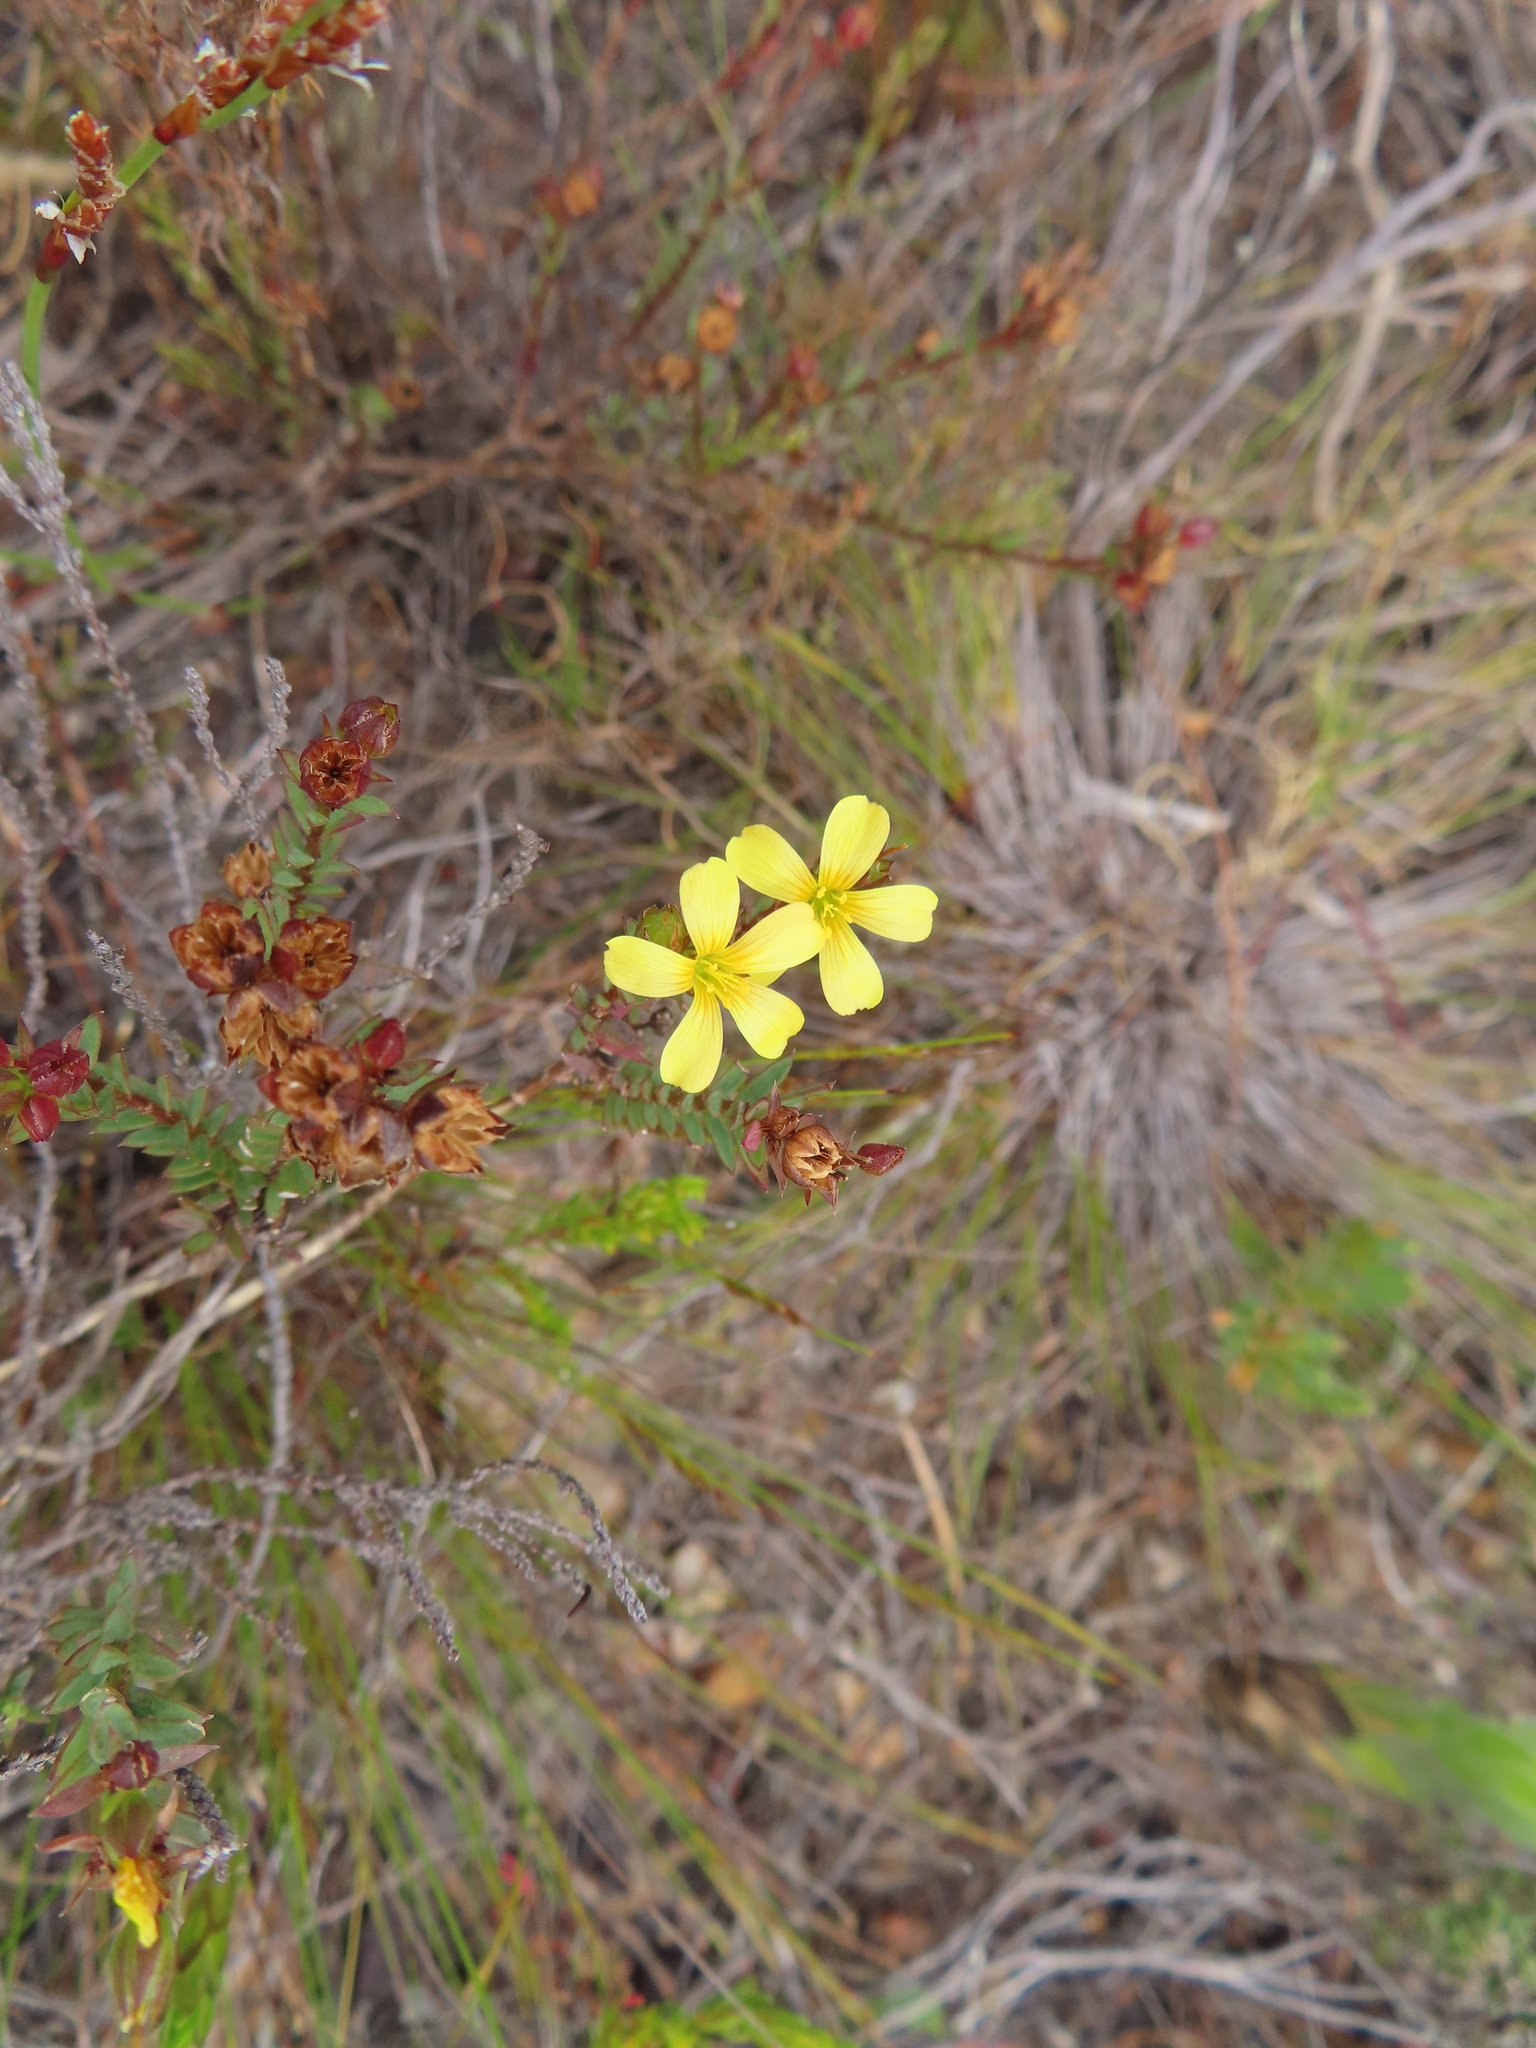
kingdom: Plantae
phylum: Tracheophyta
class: Magnoliopsida
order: Malpighiales
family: Linaceae
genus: Linum
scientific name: Linum africanum
